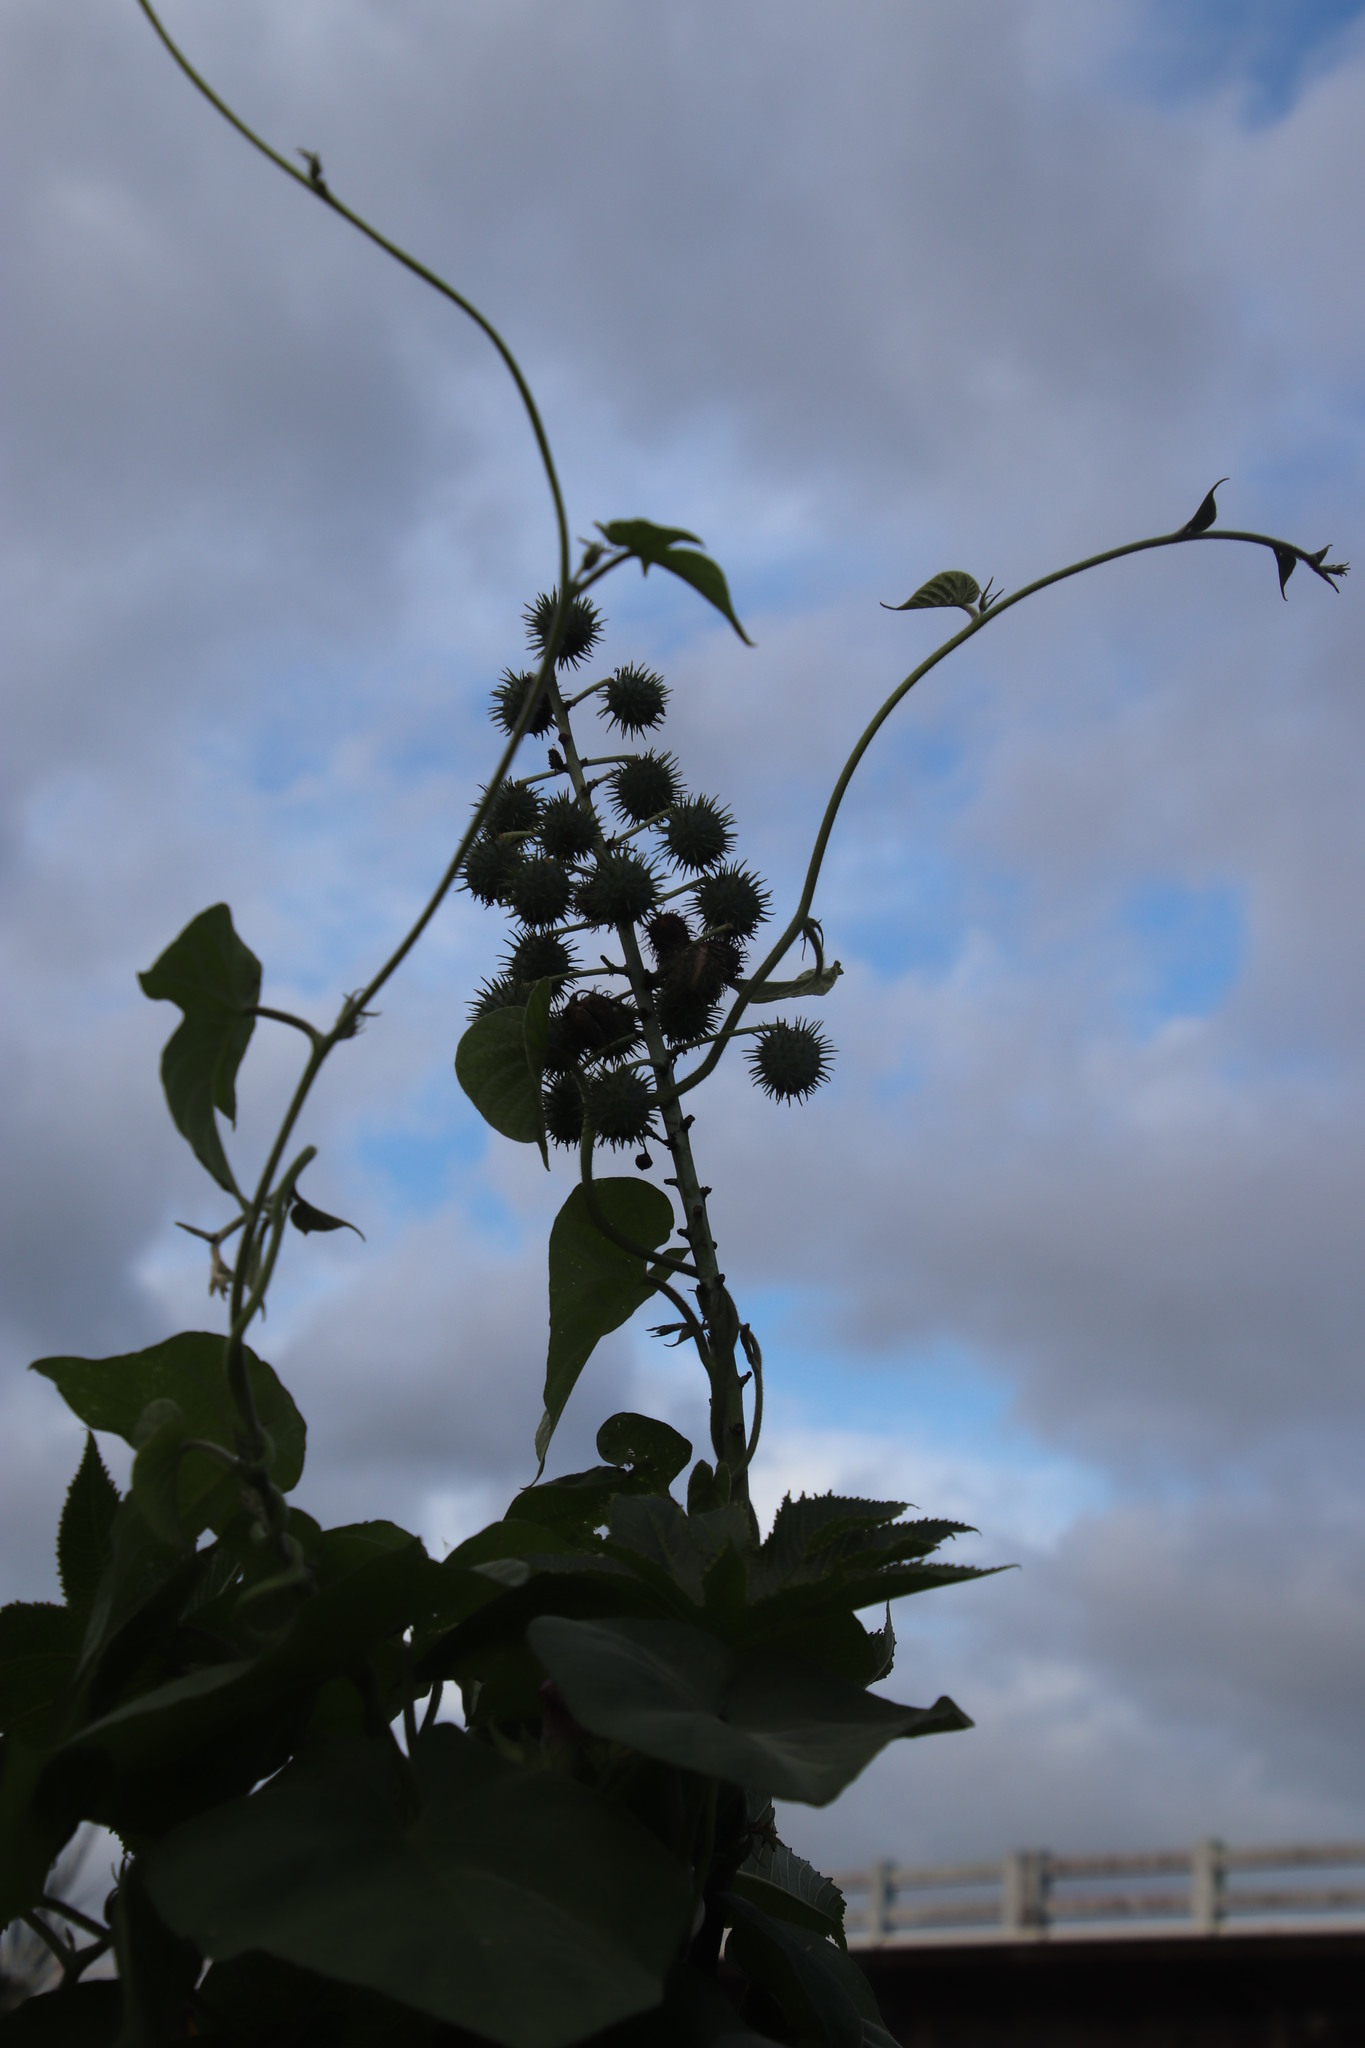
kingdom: Plantae
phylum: Tracheophyta
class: Magnoliopsida
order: Malpighiales
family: Euphorbiaceae
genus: Ricinus
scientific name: Ricinus communis
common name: Castor-oil-plant
